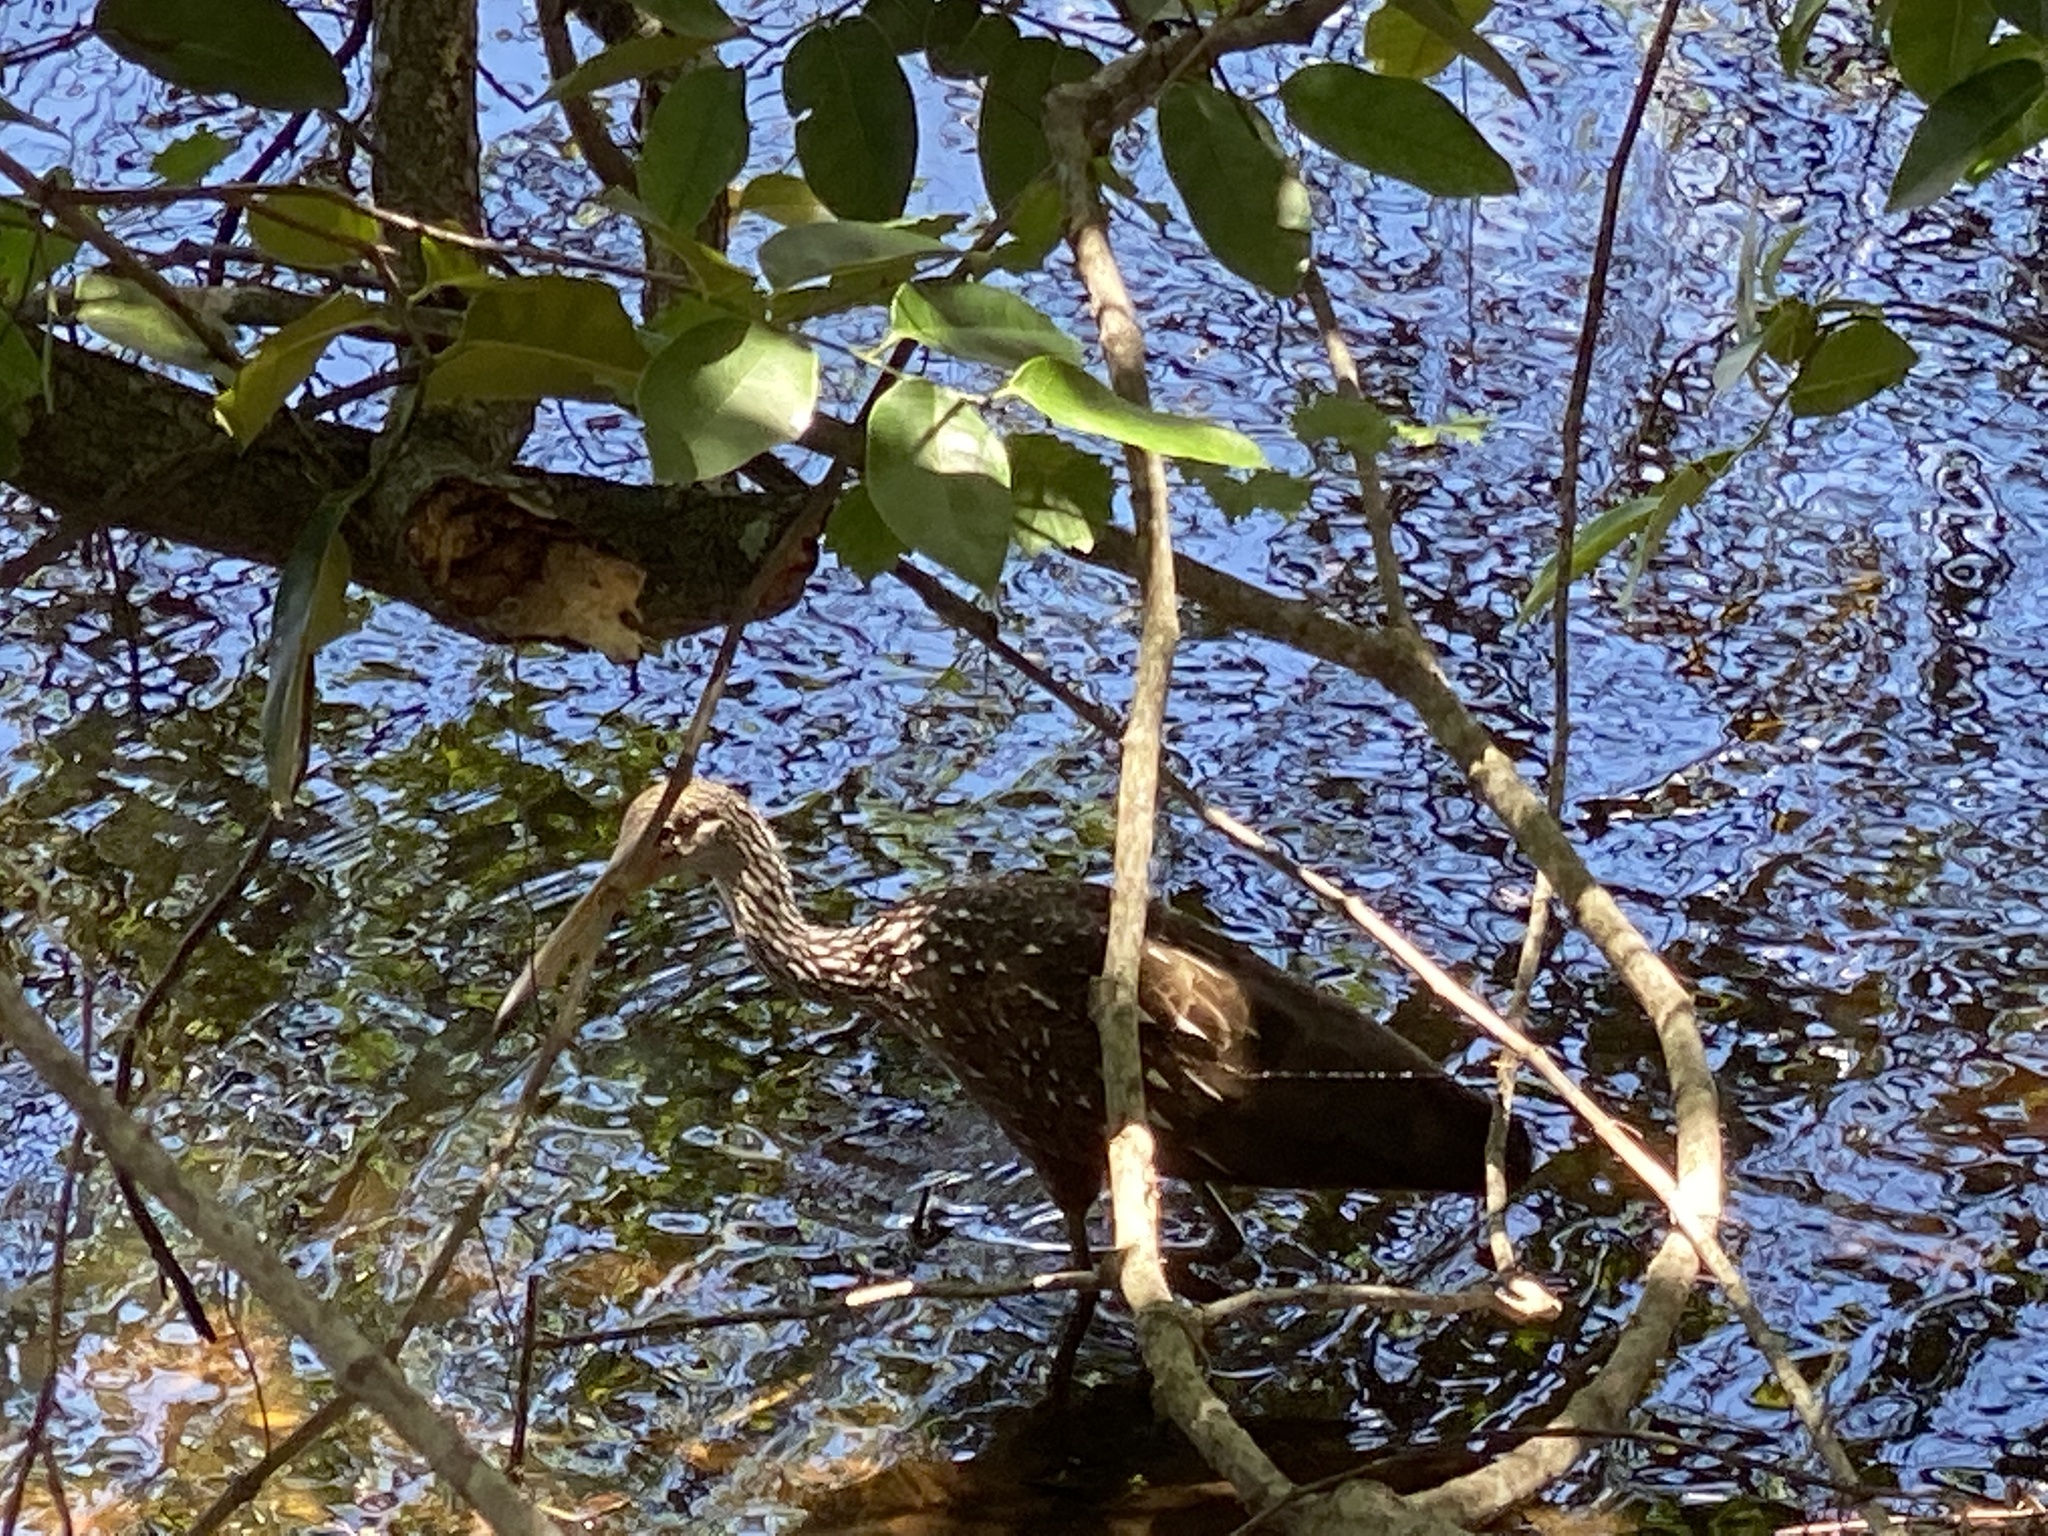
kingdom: Animalia
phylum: Chordata
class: Aves
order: Gruiformes
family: Aramidae
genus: Aramus
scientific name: Aramus guarauna
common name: Limpkin
